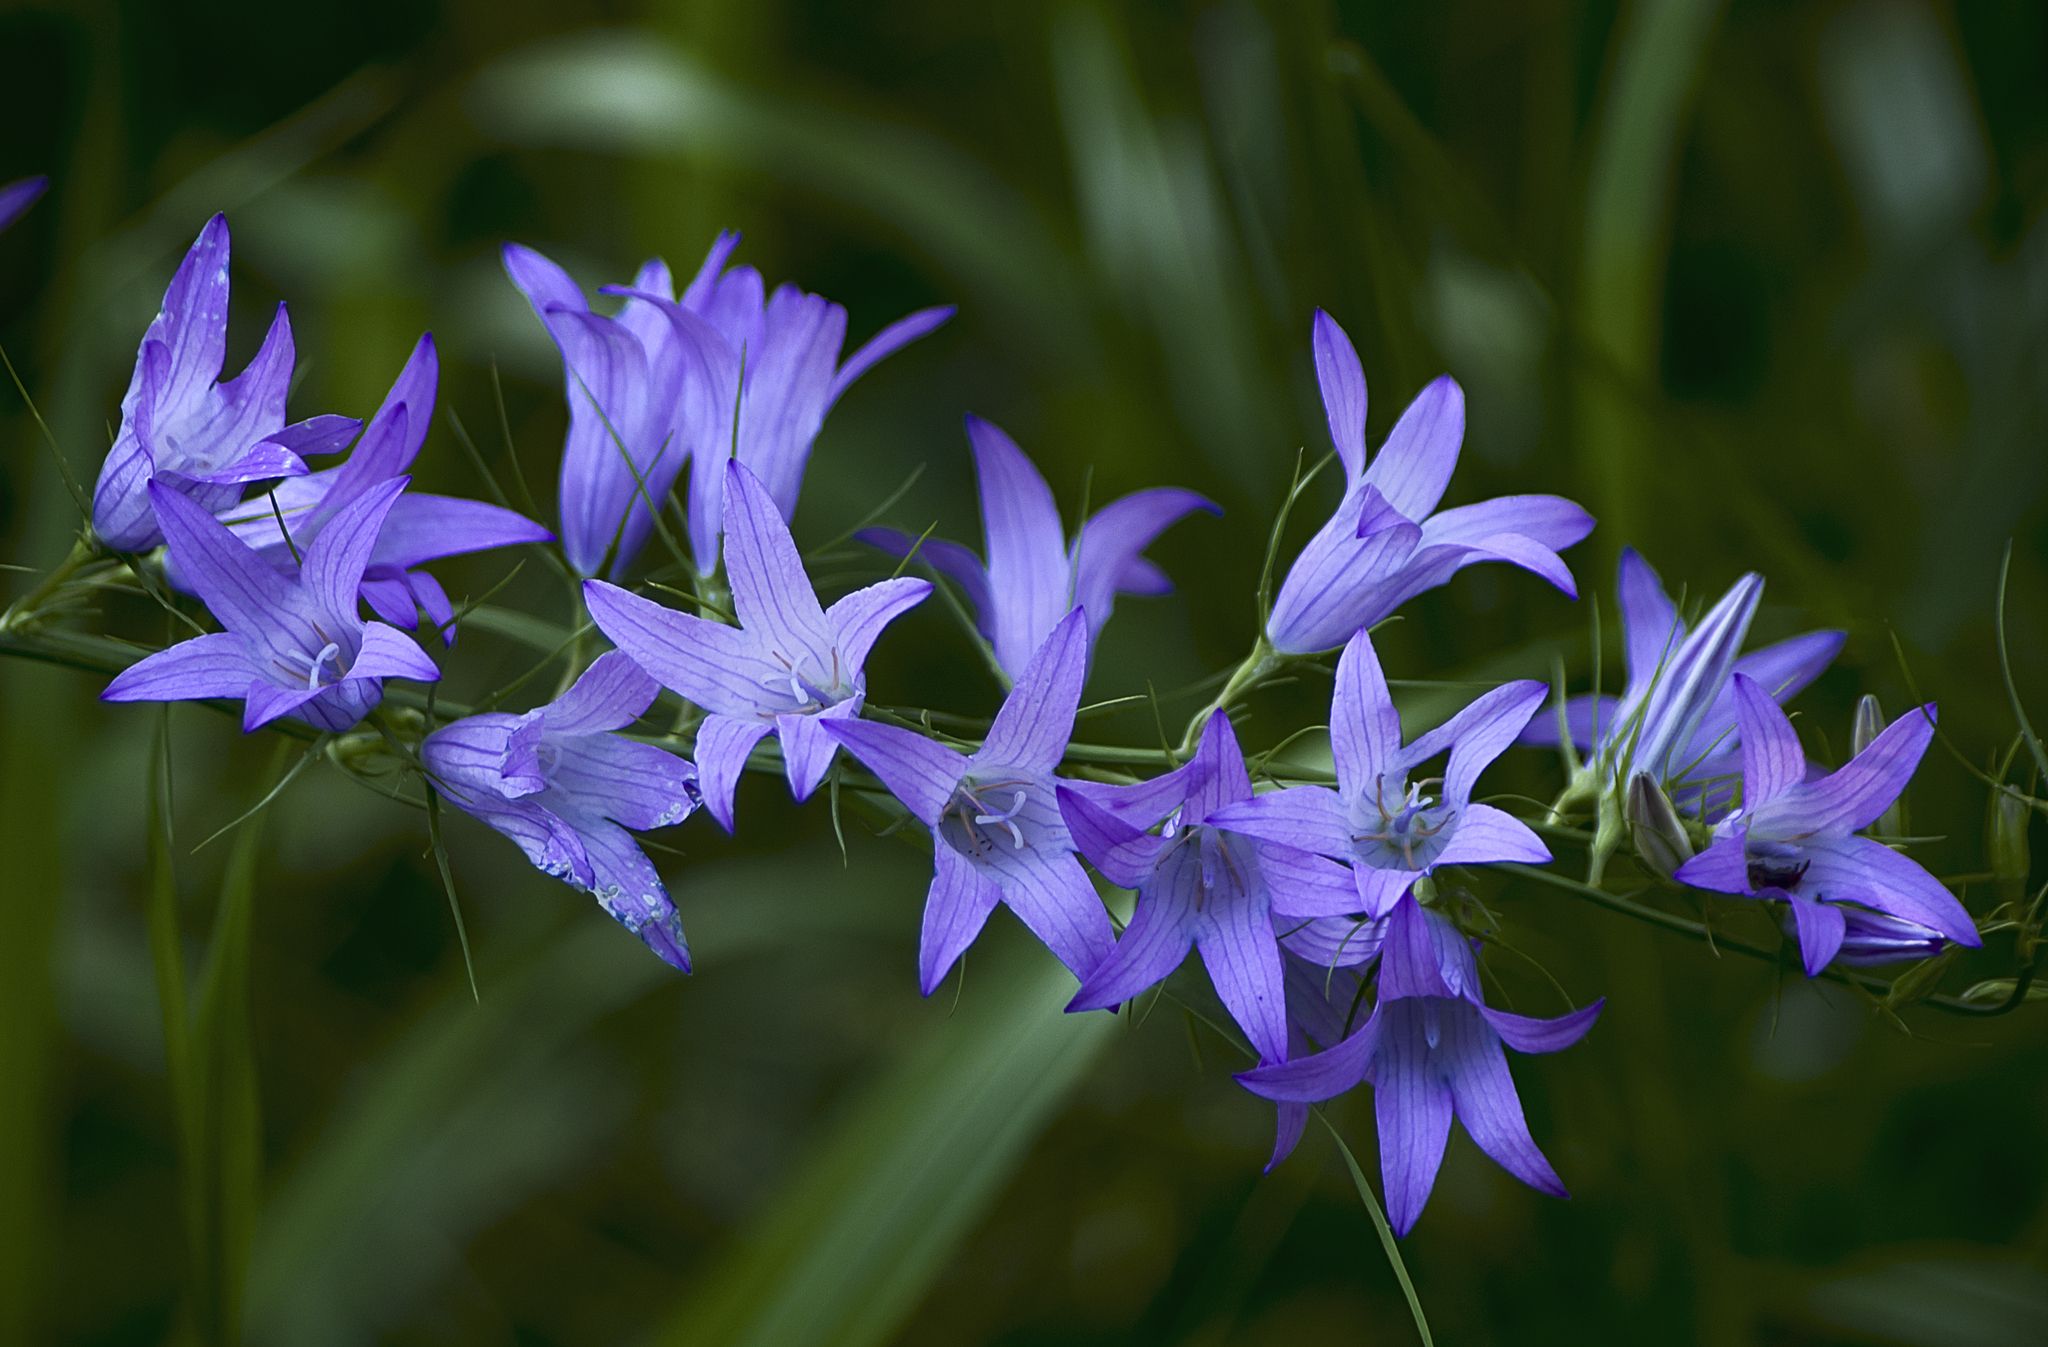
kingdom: Plantae
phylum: Tracheophyta
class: Magnoliopsida
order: Asterales
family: Campanulaceae
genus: Campanula
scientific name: Campanula rapunculus
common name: Rampion bellflower
